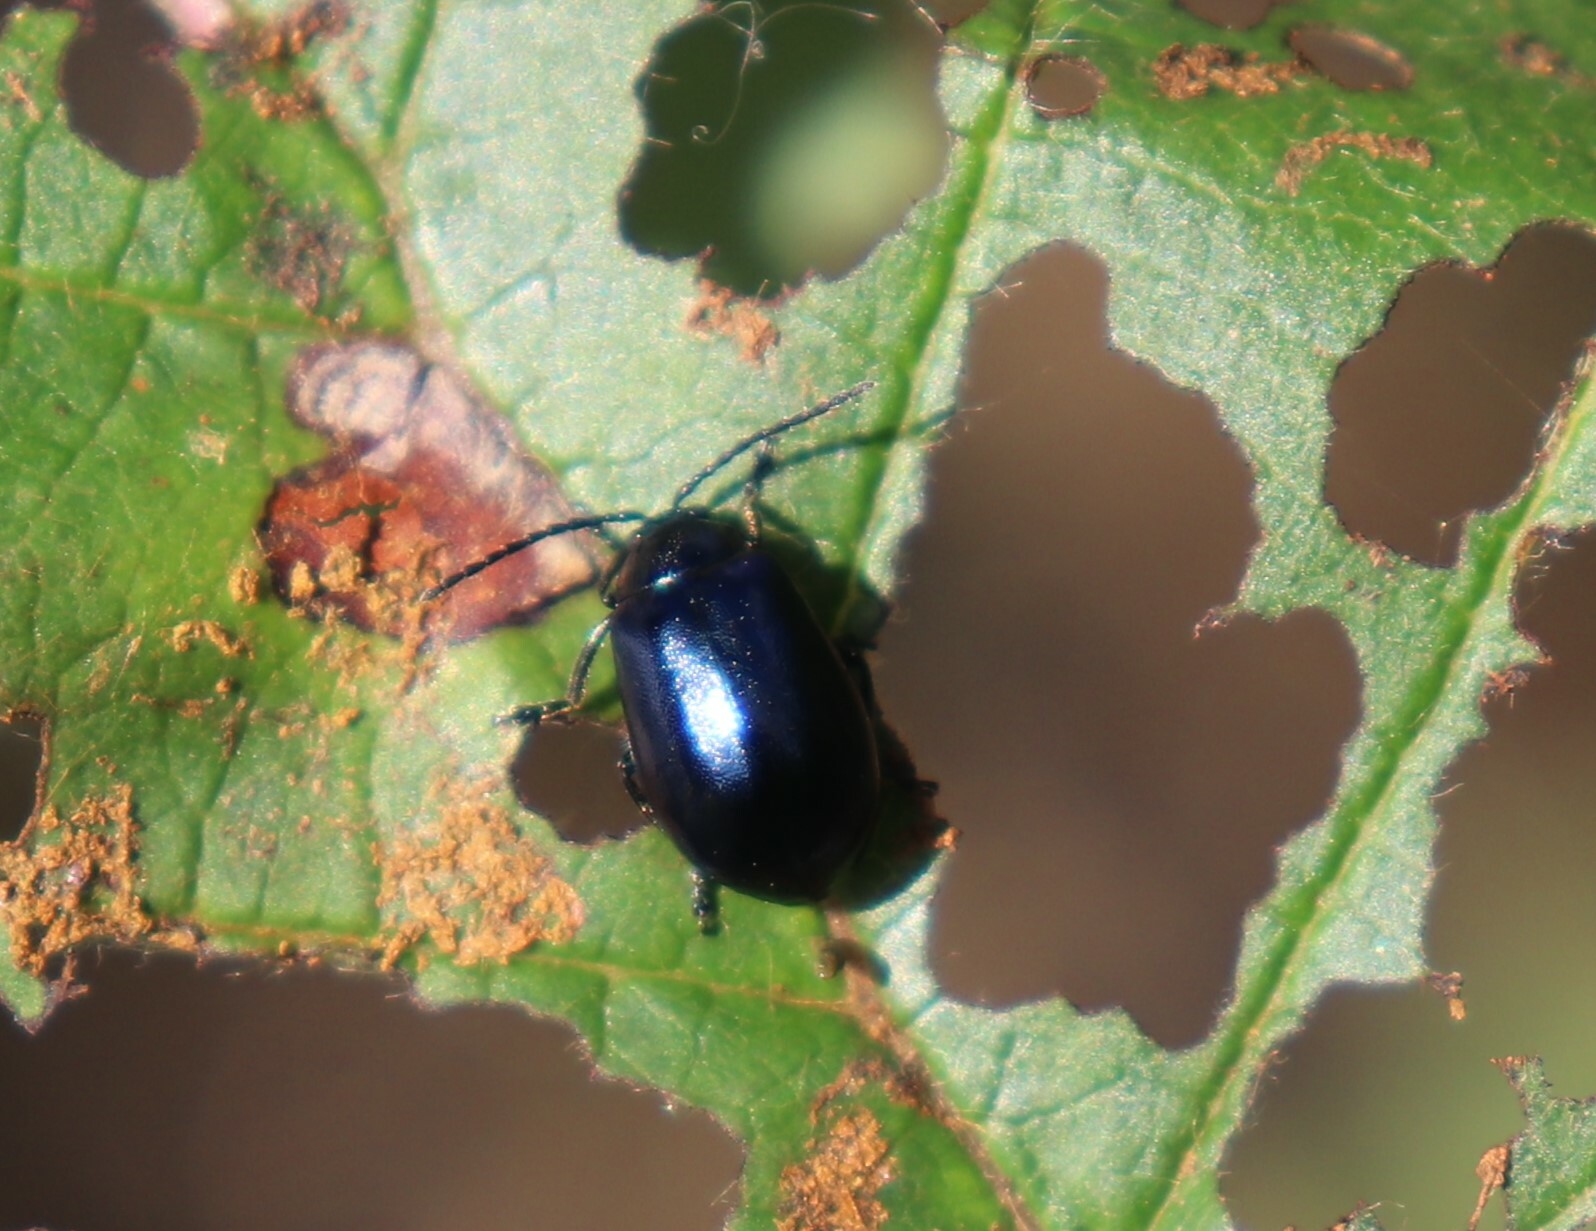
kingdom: Animalia
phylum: Arthropoda
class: Insecta
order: Coleoptera
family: Chrysomelidae
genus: Agelastica
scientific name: Agelastica alni
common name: Alder leaf beetle
